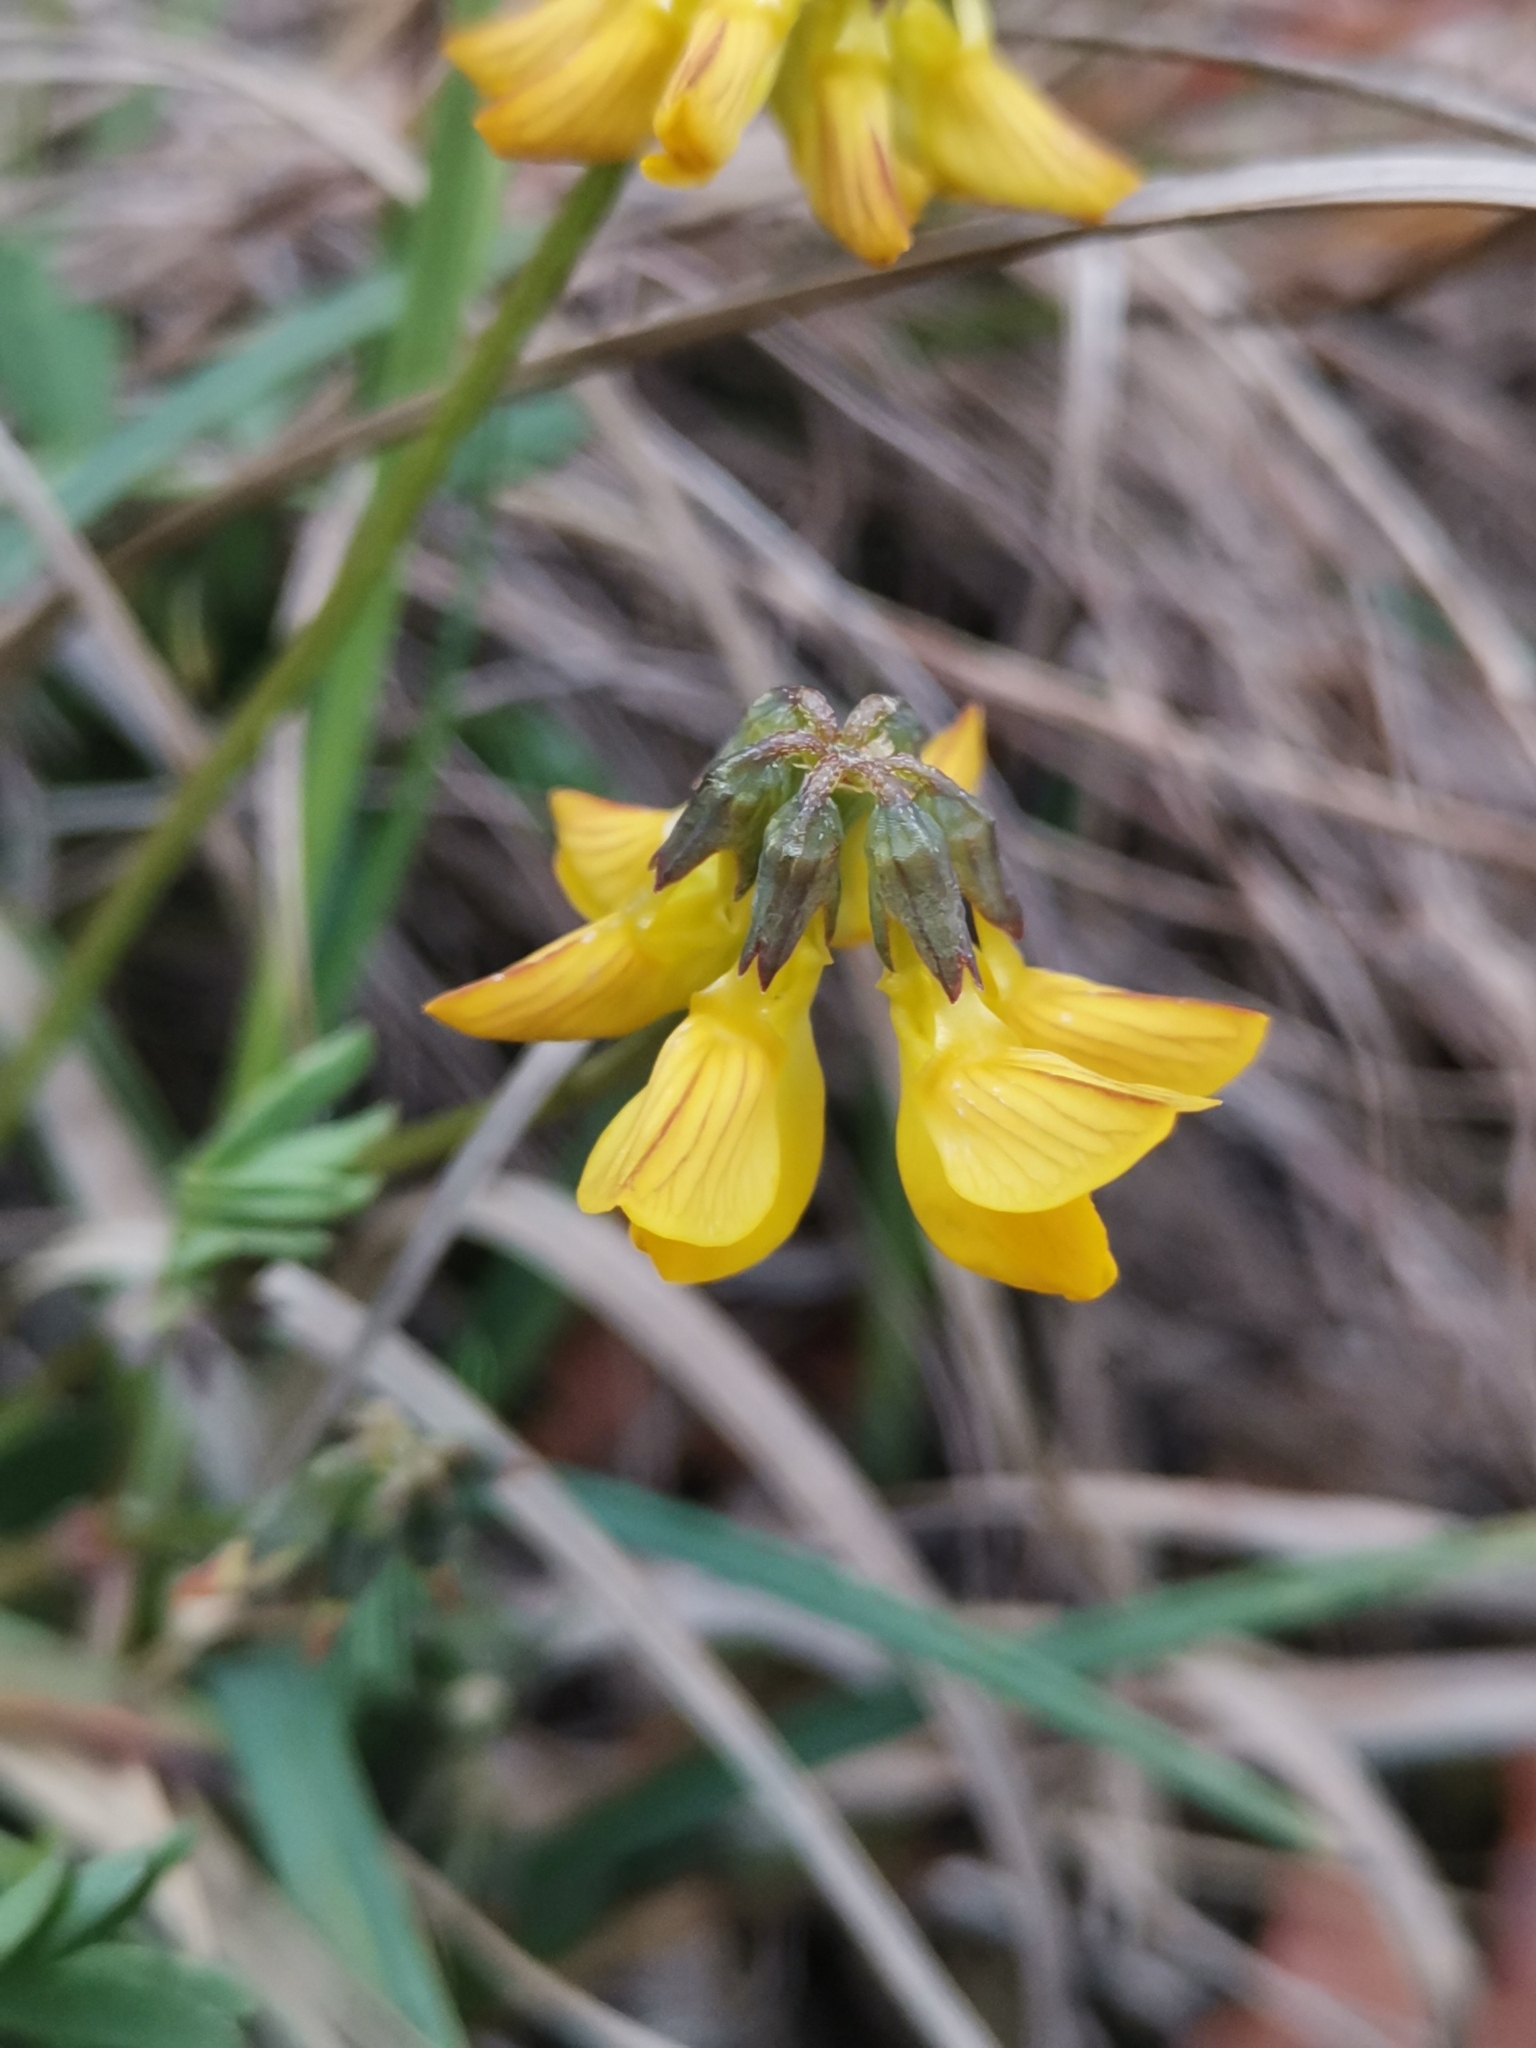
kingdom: Plantae
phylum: Tracheophyta
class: Magnoliopsida
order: Fabales
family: Fabaceae
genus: Hippocrepis
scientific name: Hippocrepis comosa
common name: Horseshoe vetch
